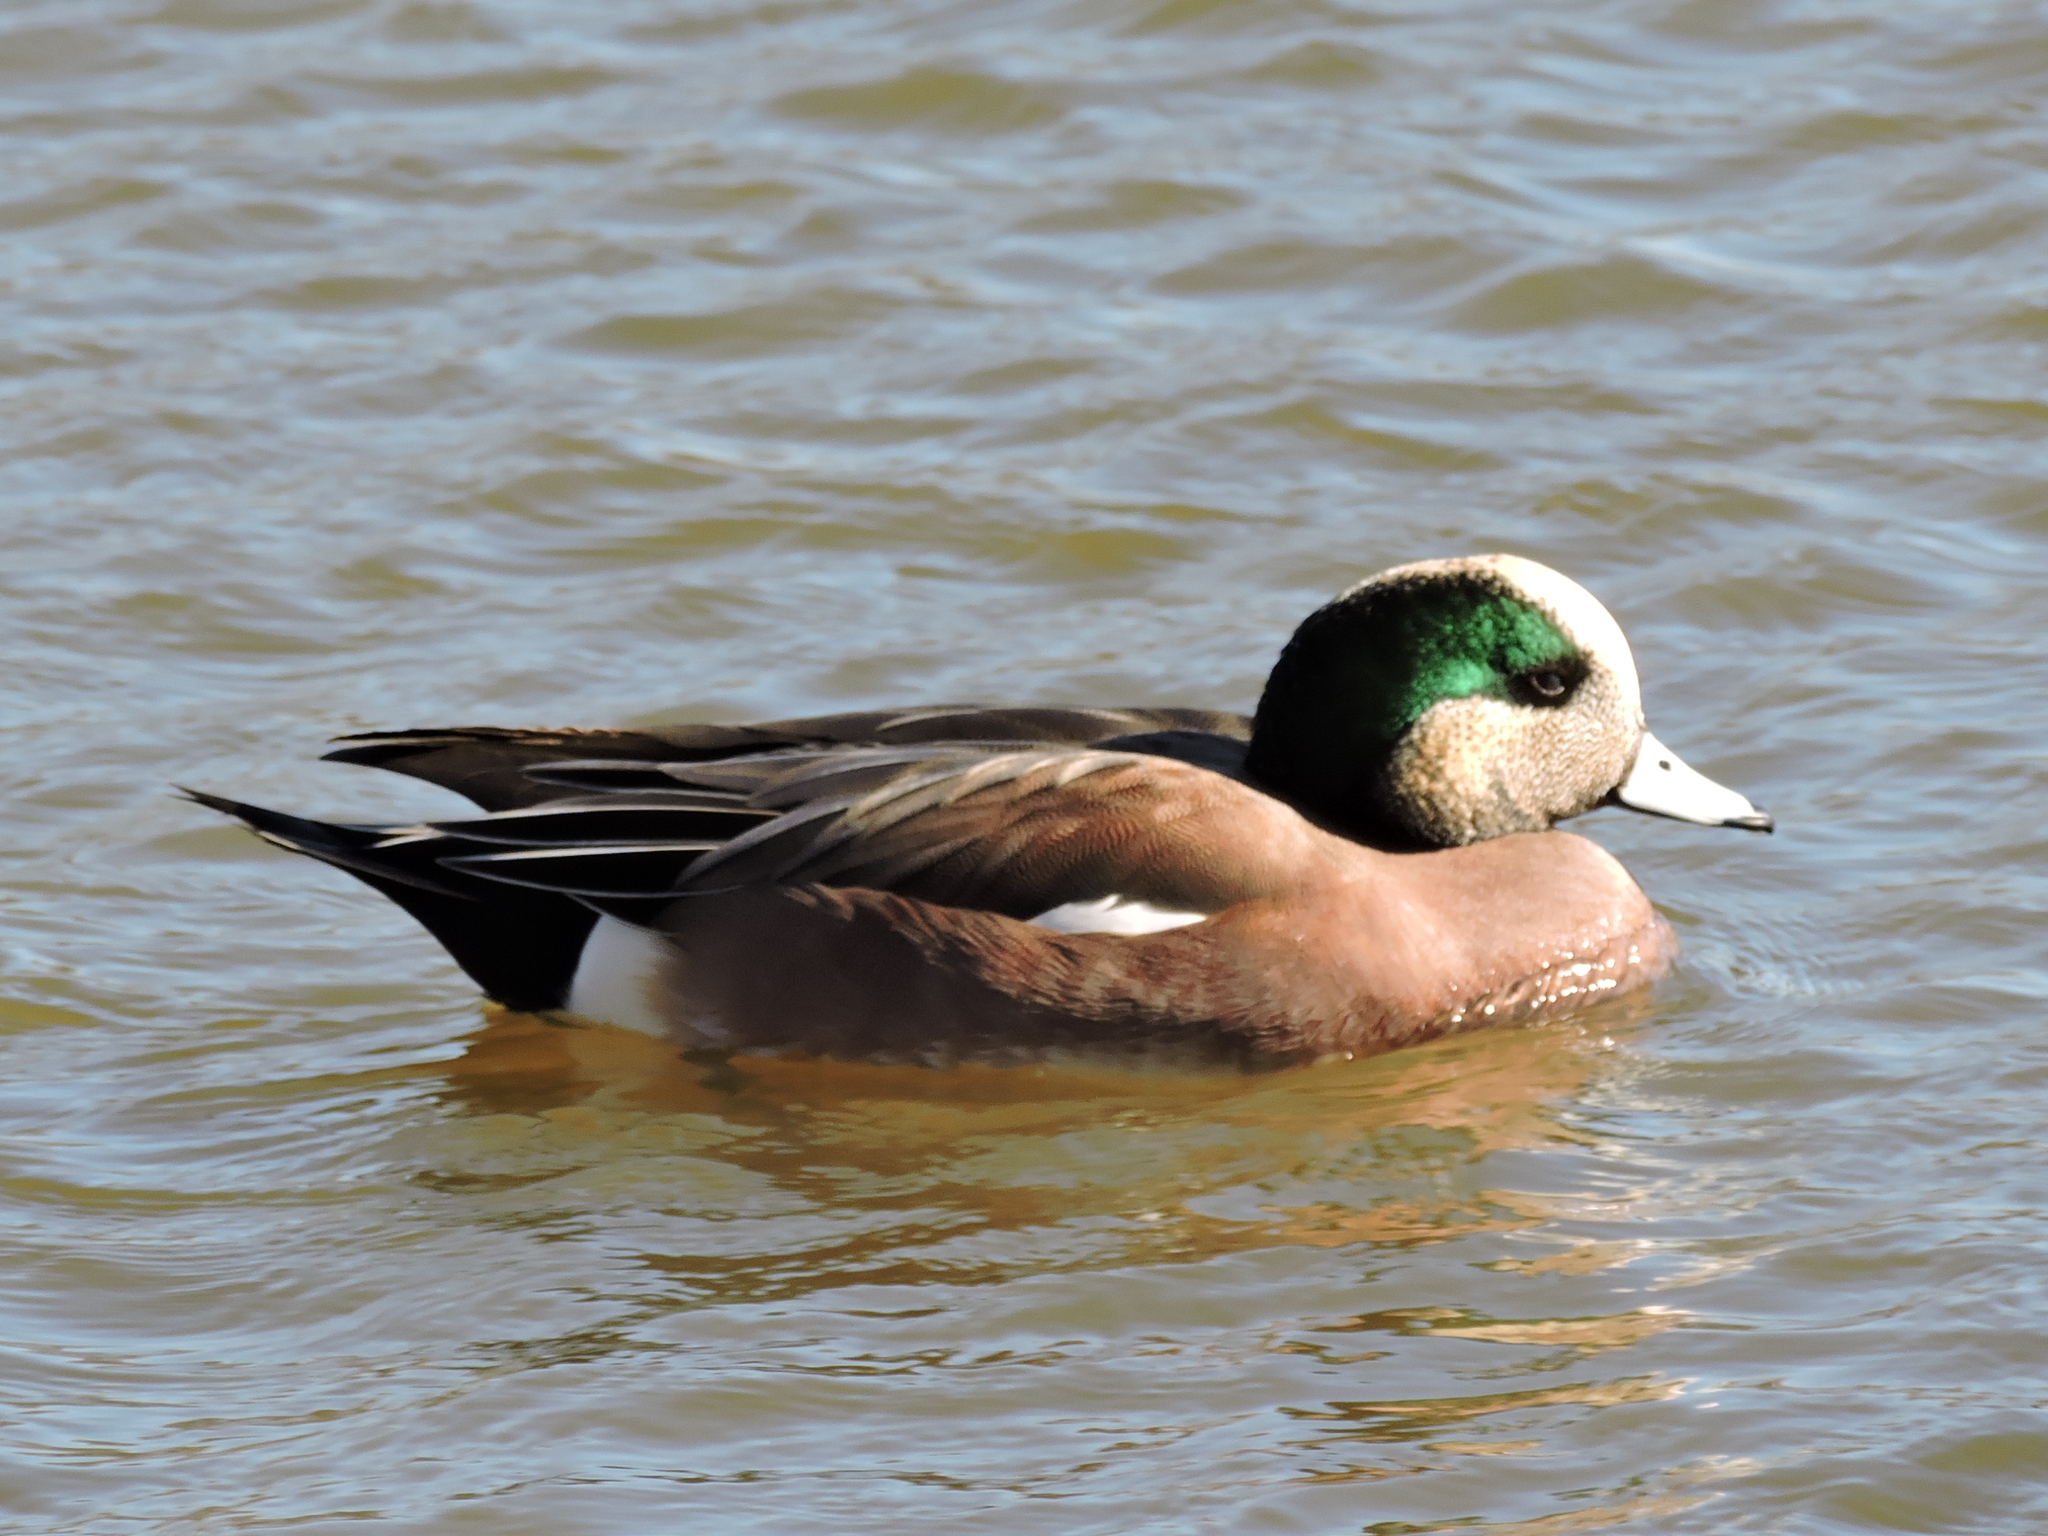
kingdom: Animalia
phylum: Chordata
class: Aves
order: Anseriformes
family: Anatidae
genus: Mareca
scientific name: Mareca americana
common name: American wigeon
